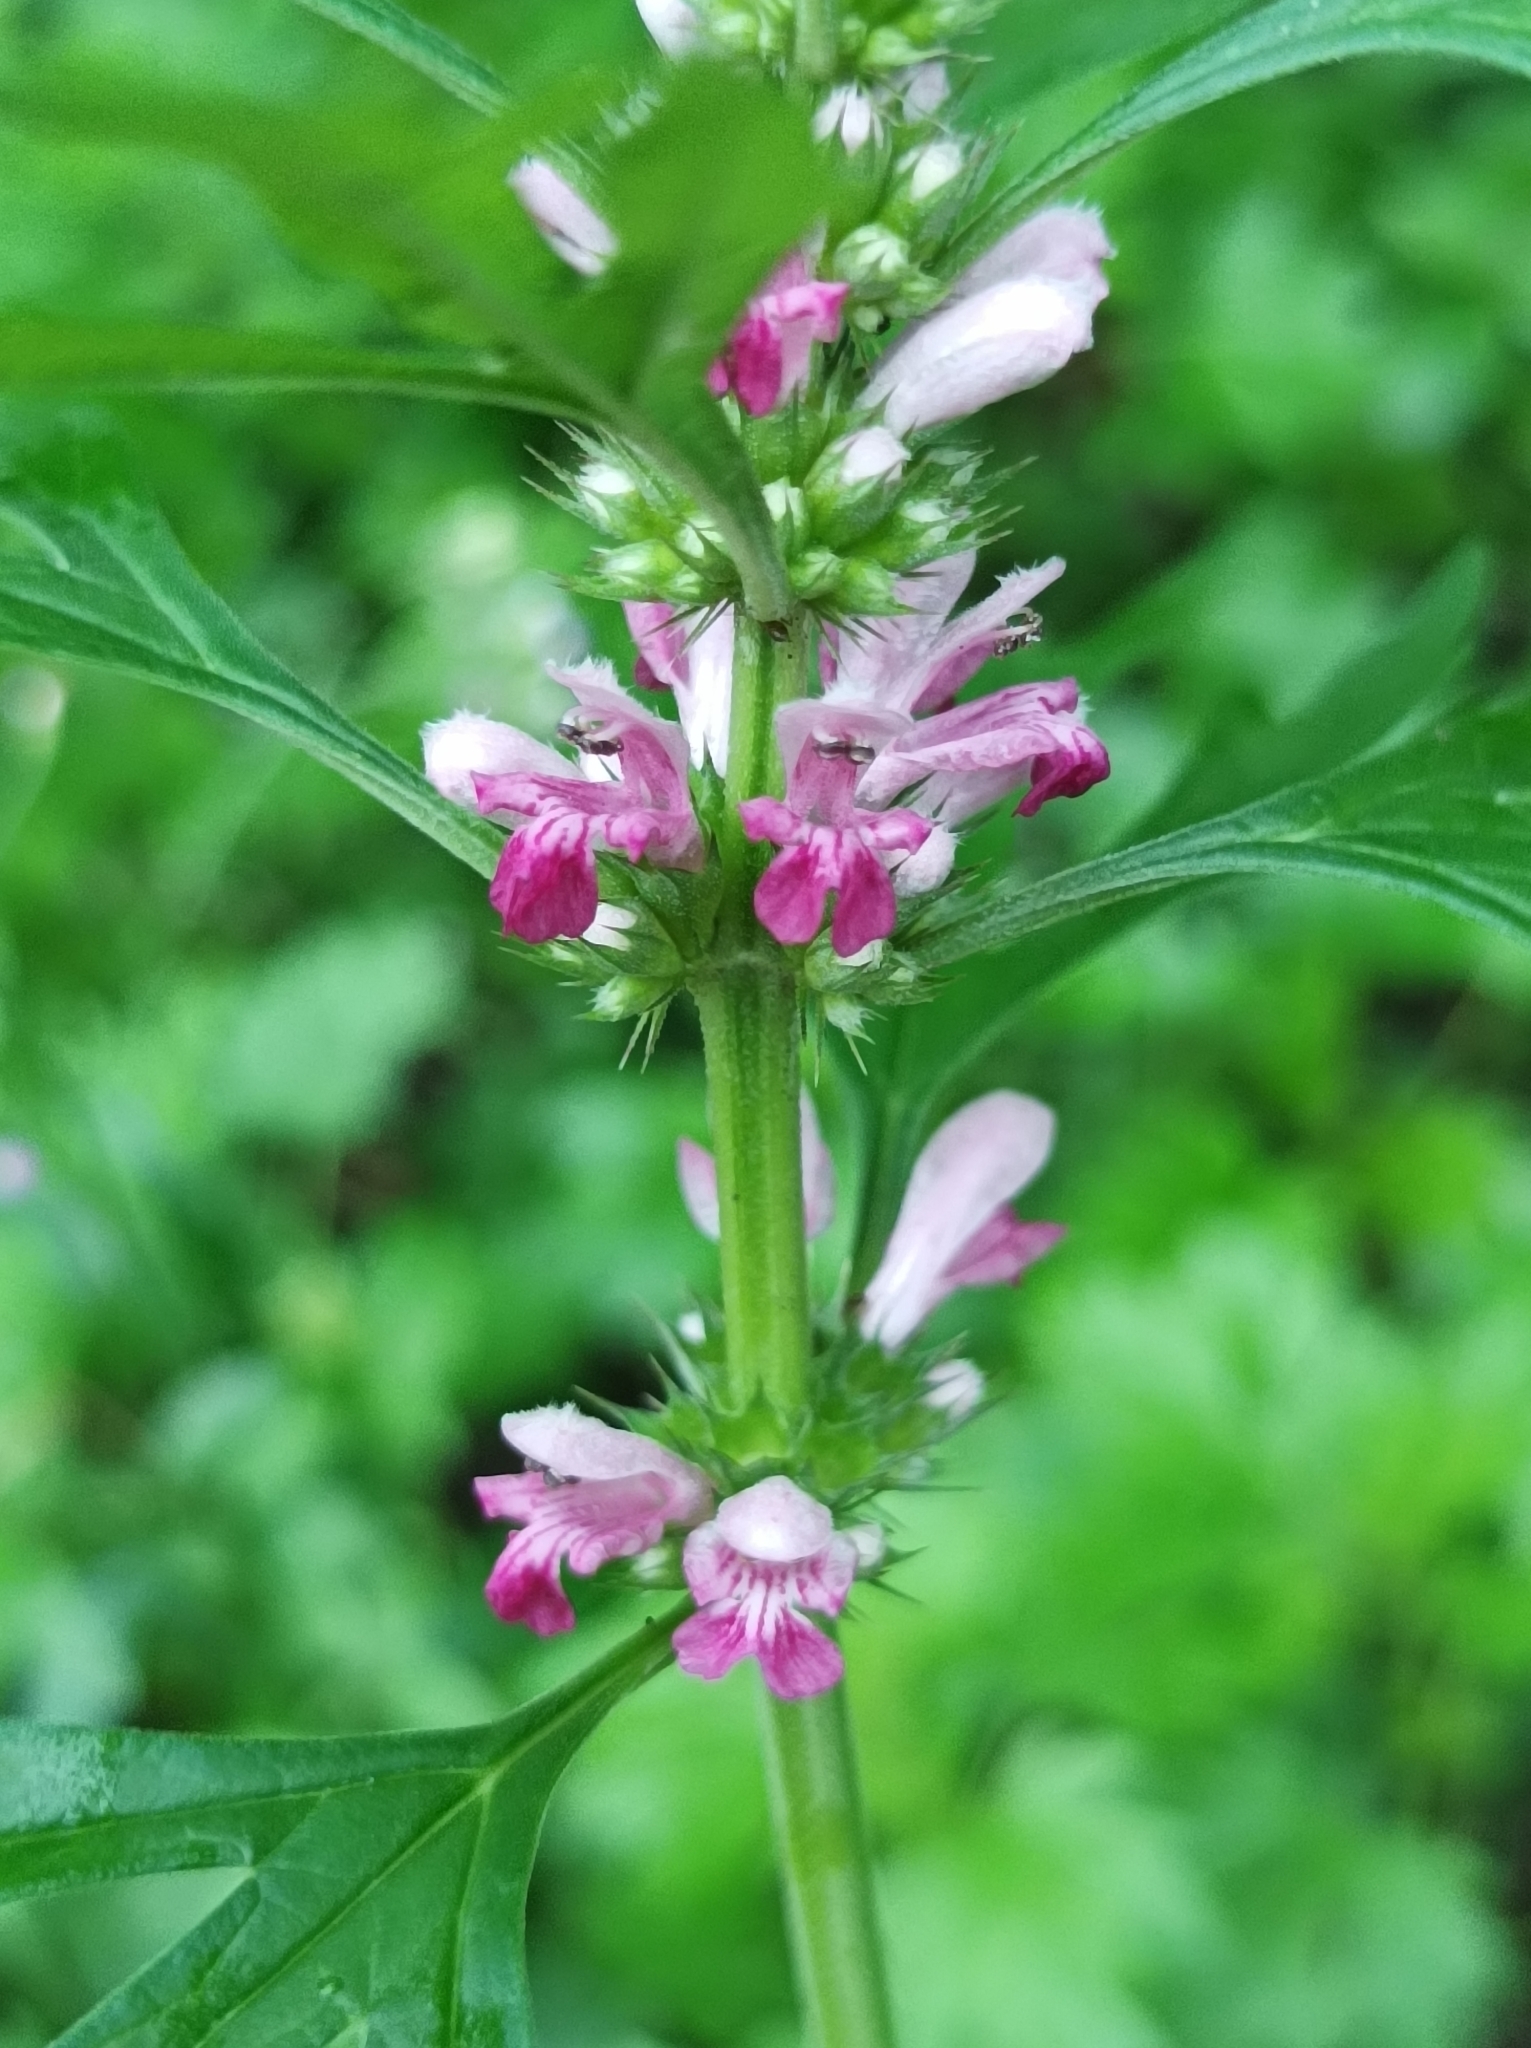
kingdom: Plantae
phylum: Tracheophyta
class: Magnoliopsida
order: Lamiales
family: Lamiaceae
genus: Leonurus
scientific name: Leonurus japonicus
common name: Honeyweed
